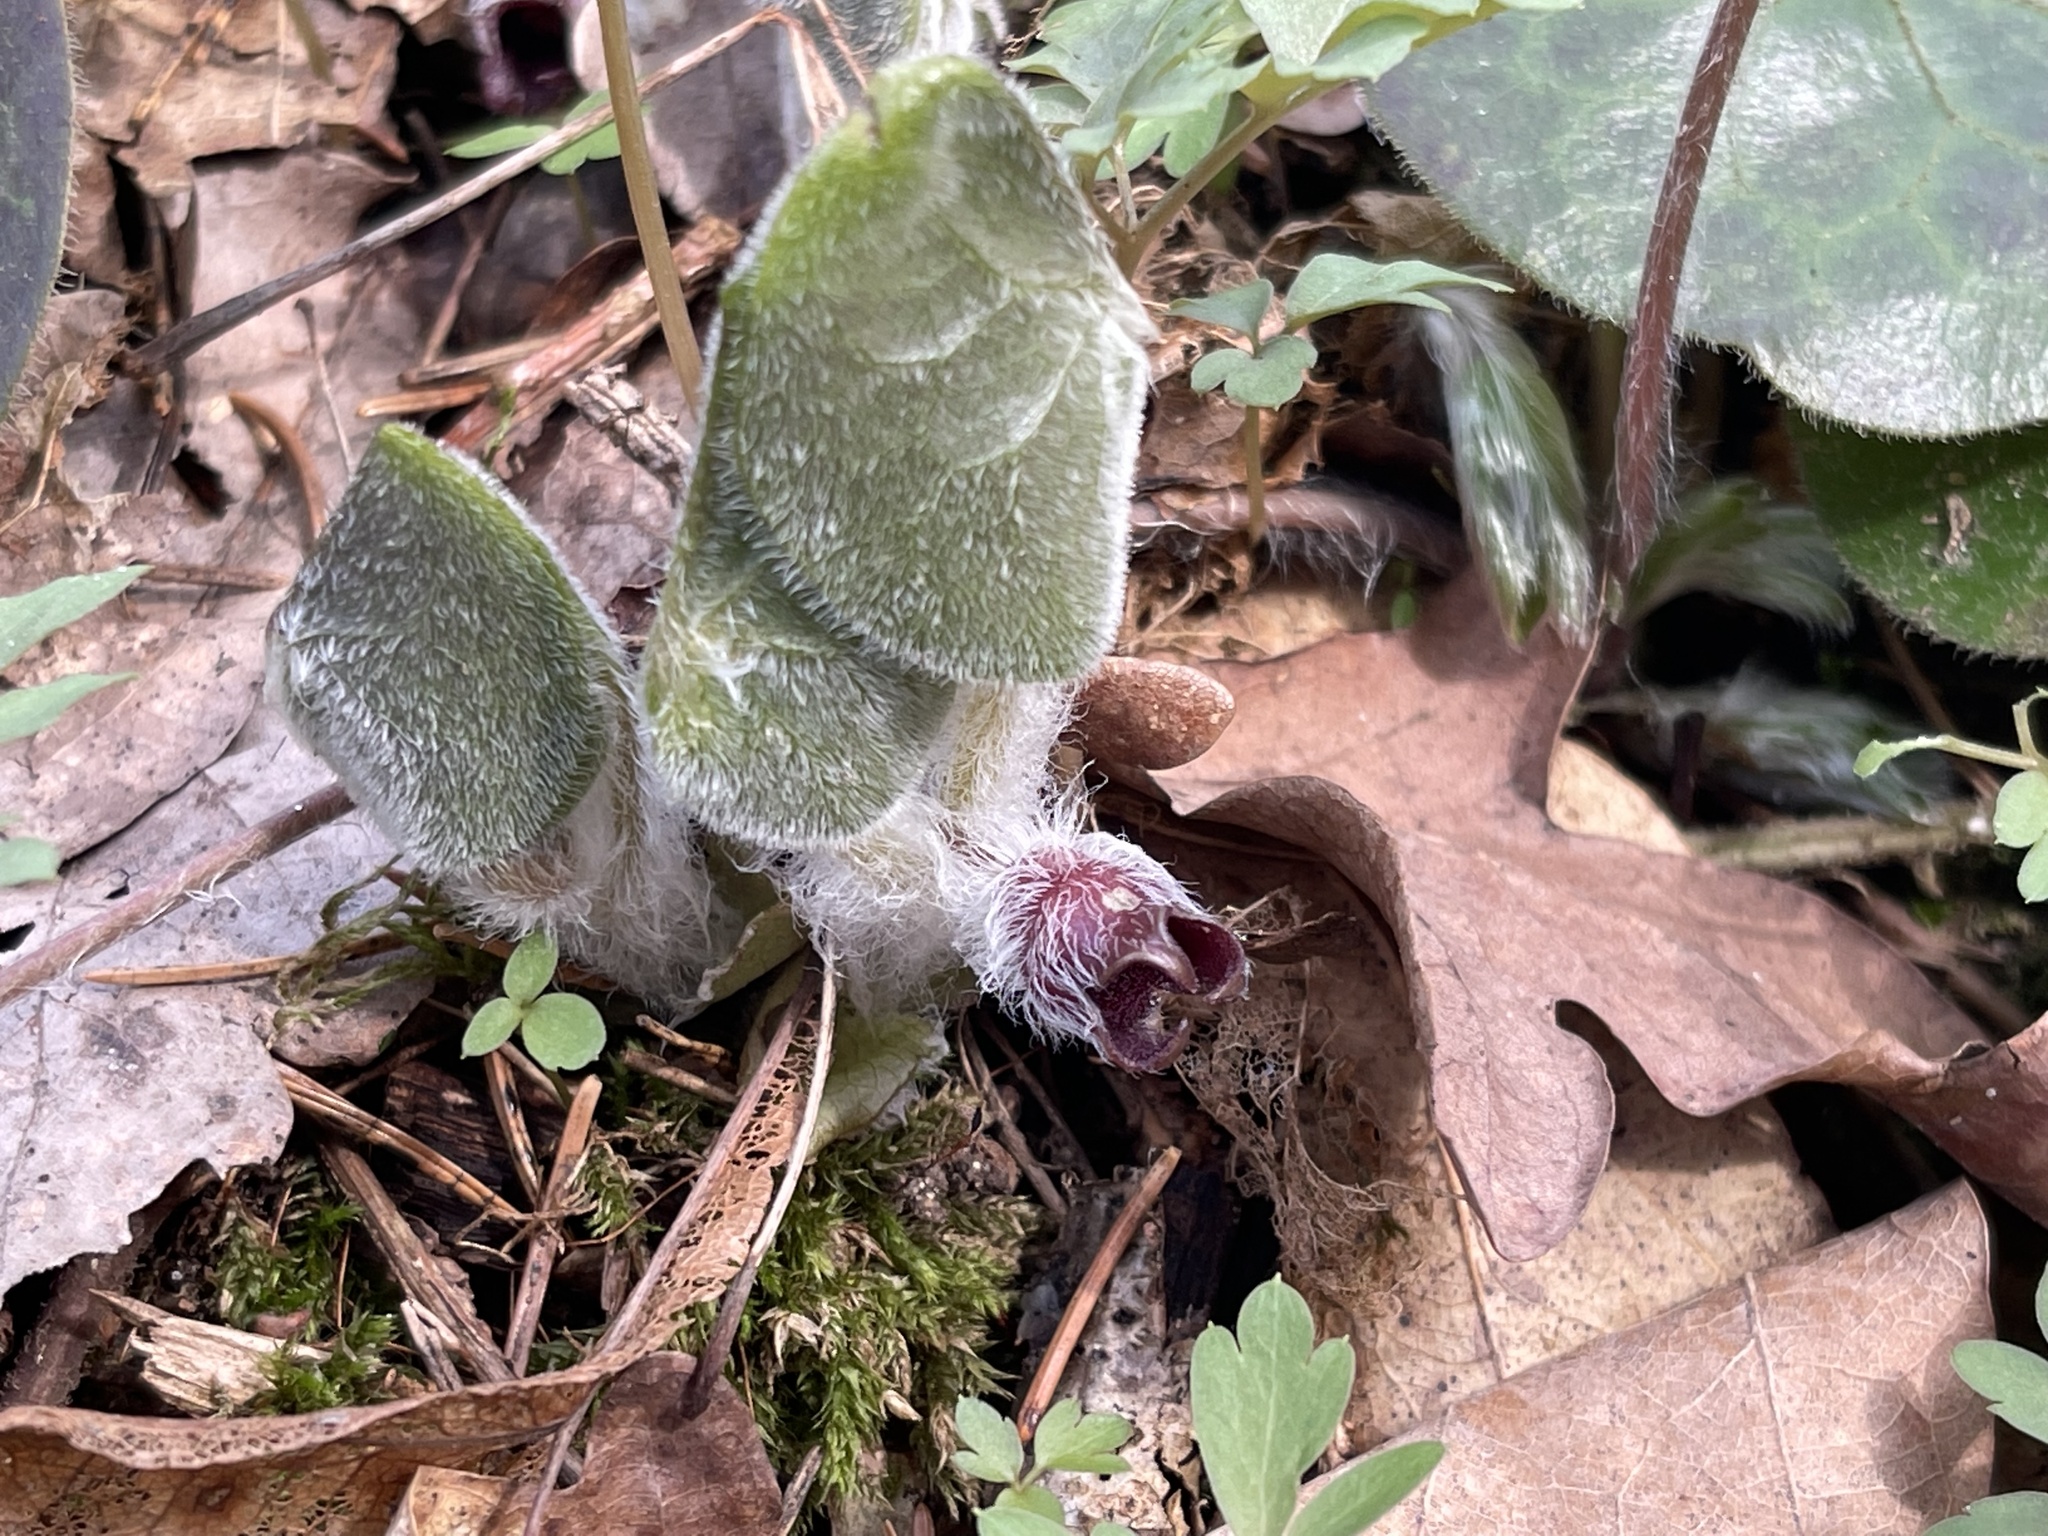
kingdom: Plantae
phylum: Tracheophyta
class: Magnoliopsida
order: Piperales
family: Aristolochiaceae
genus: Asarum
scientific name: Asarum europaeum
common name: Asarabacca
